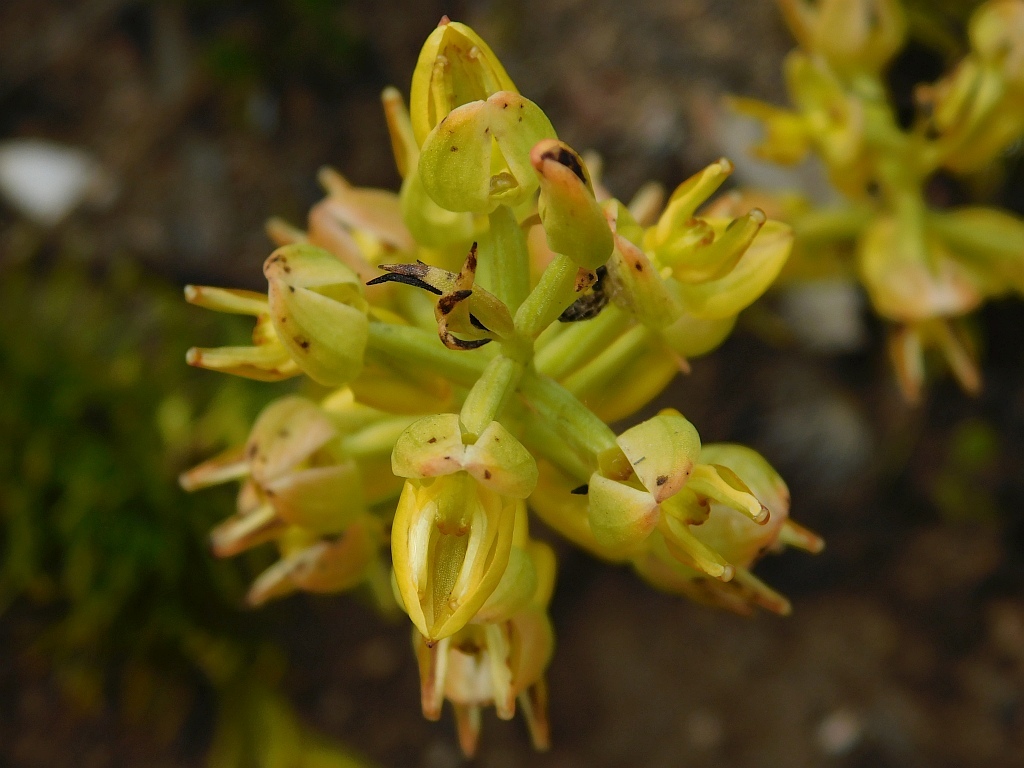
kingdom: Plantae
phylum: Tracheophyta
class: Liliopsida
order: Asparagales
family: Orchidaceae
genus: Ceratandra
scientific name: Ceratandra atrata
